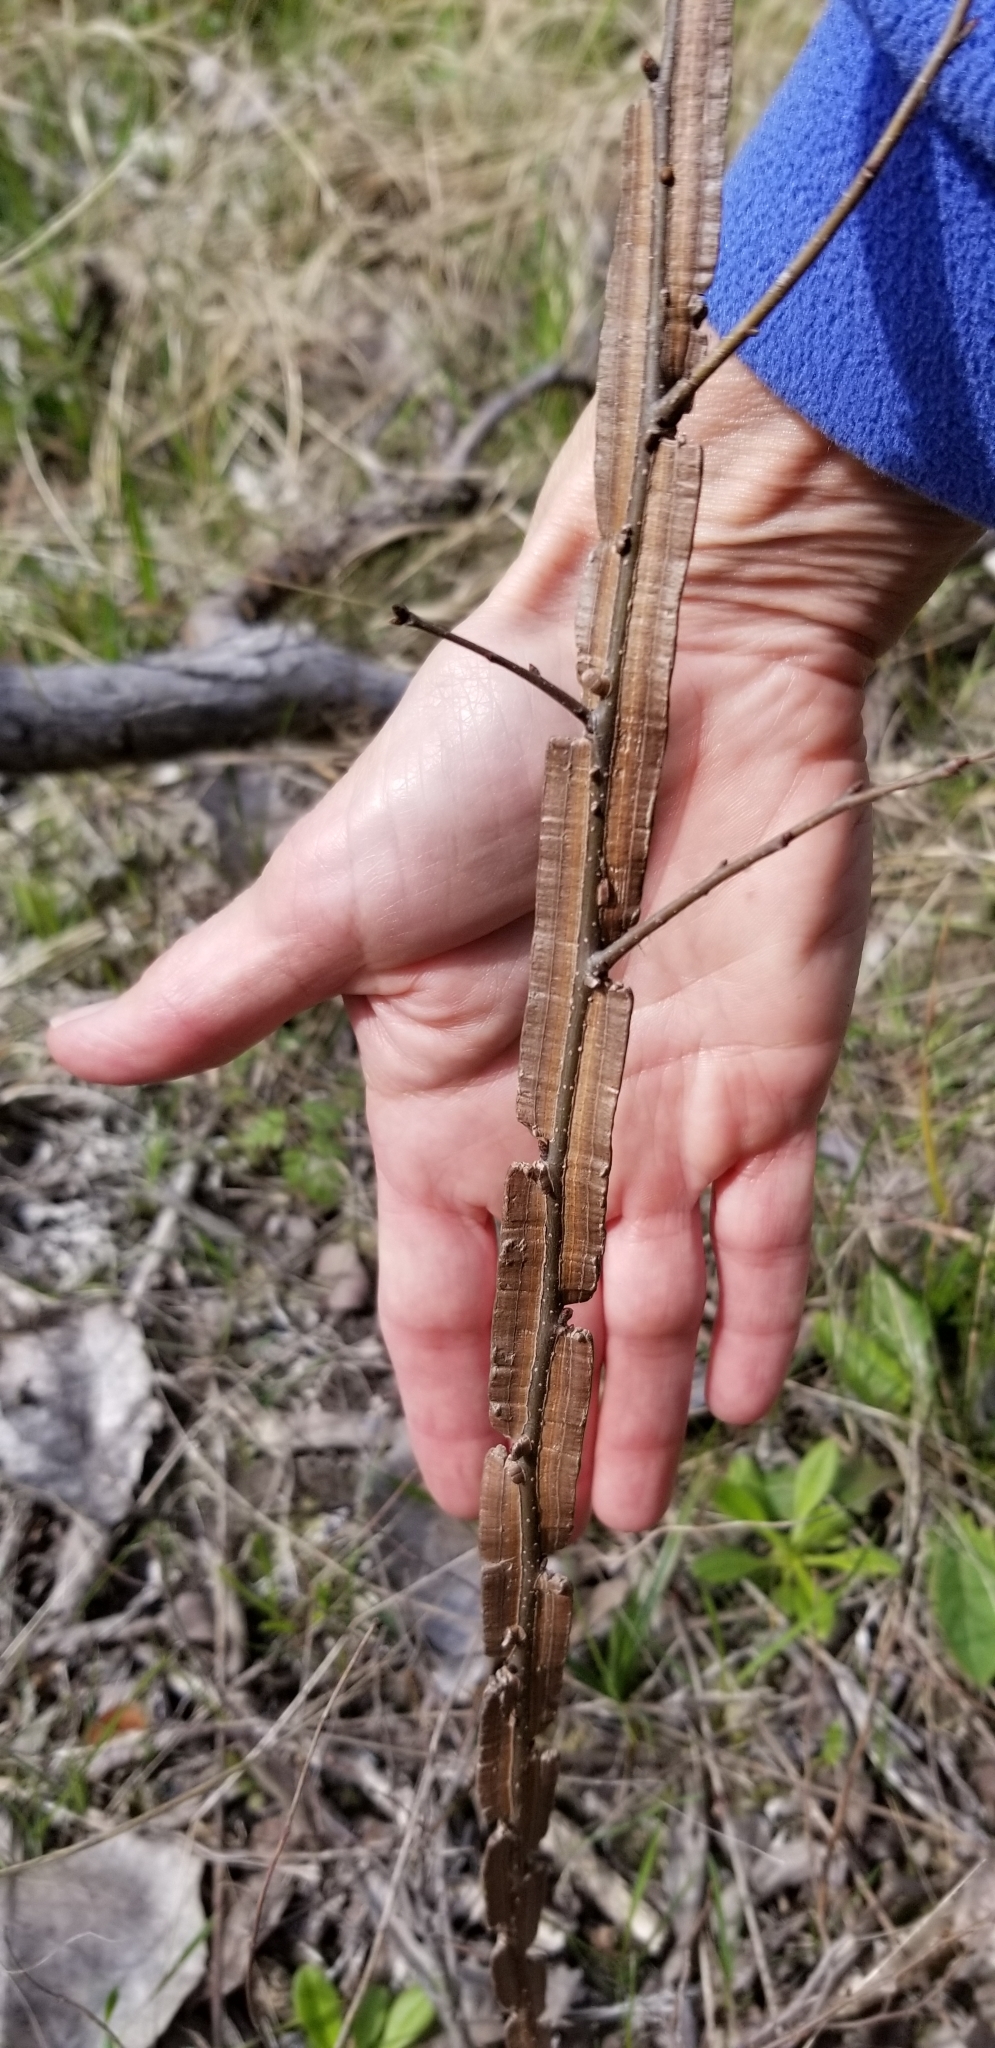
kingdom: Plantae
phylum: Tracheophyta
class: Magnoliopsida
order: Rosales
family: Ulmaceae
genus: Ulmus
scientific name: Ulmus crassifolia
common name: Basket elm
